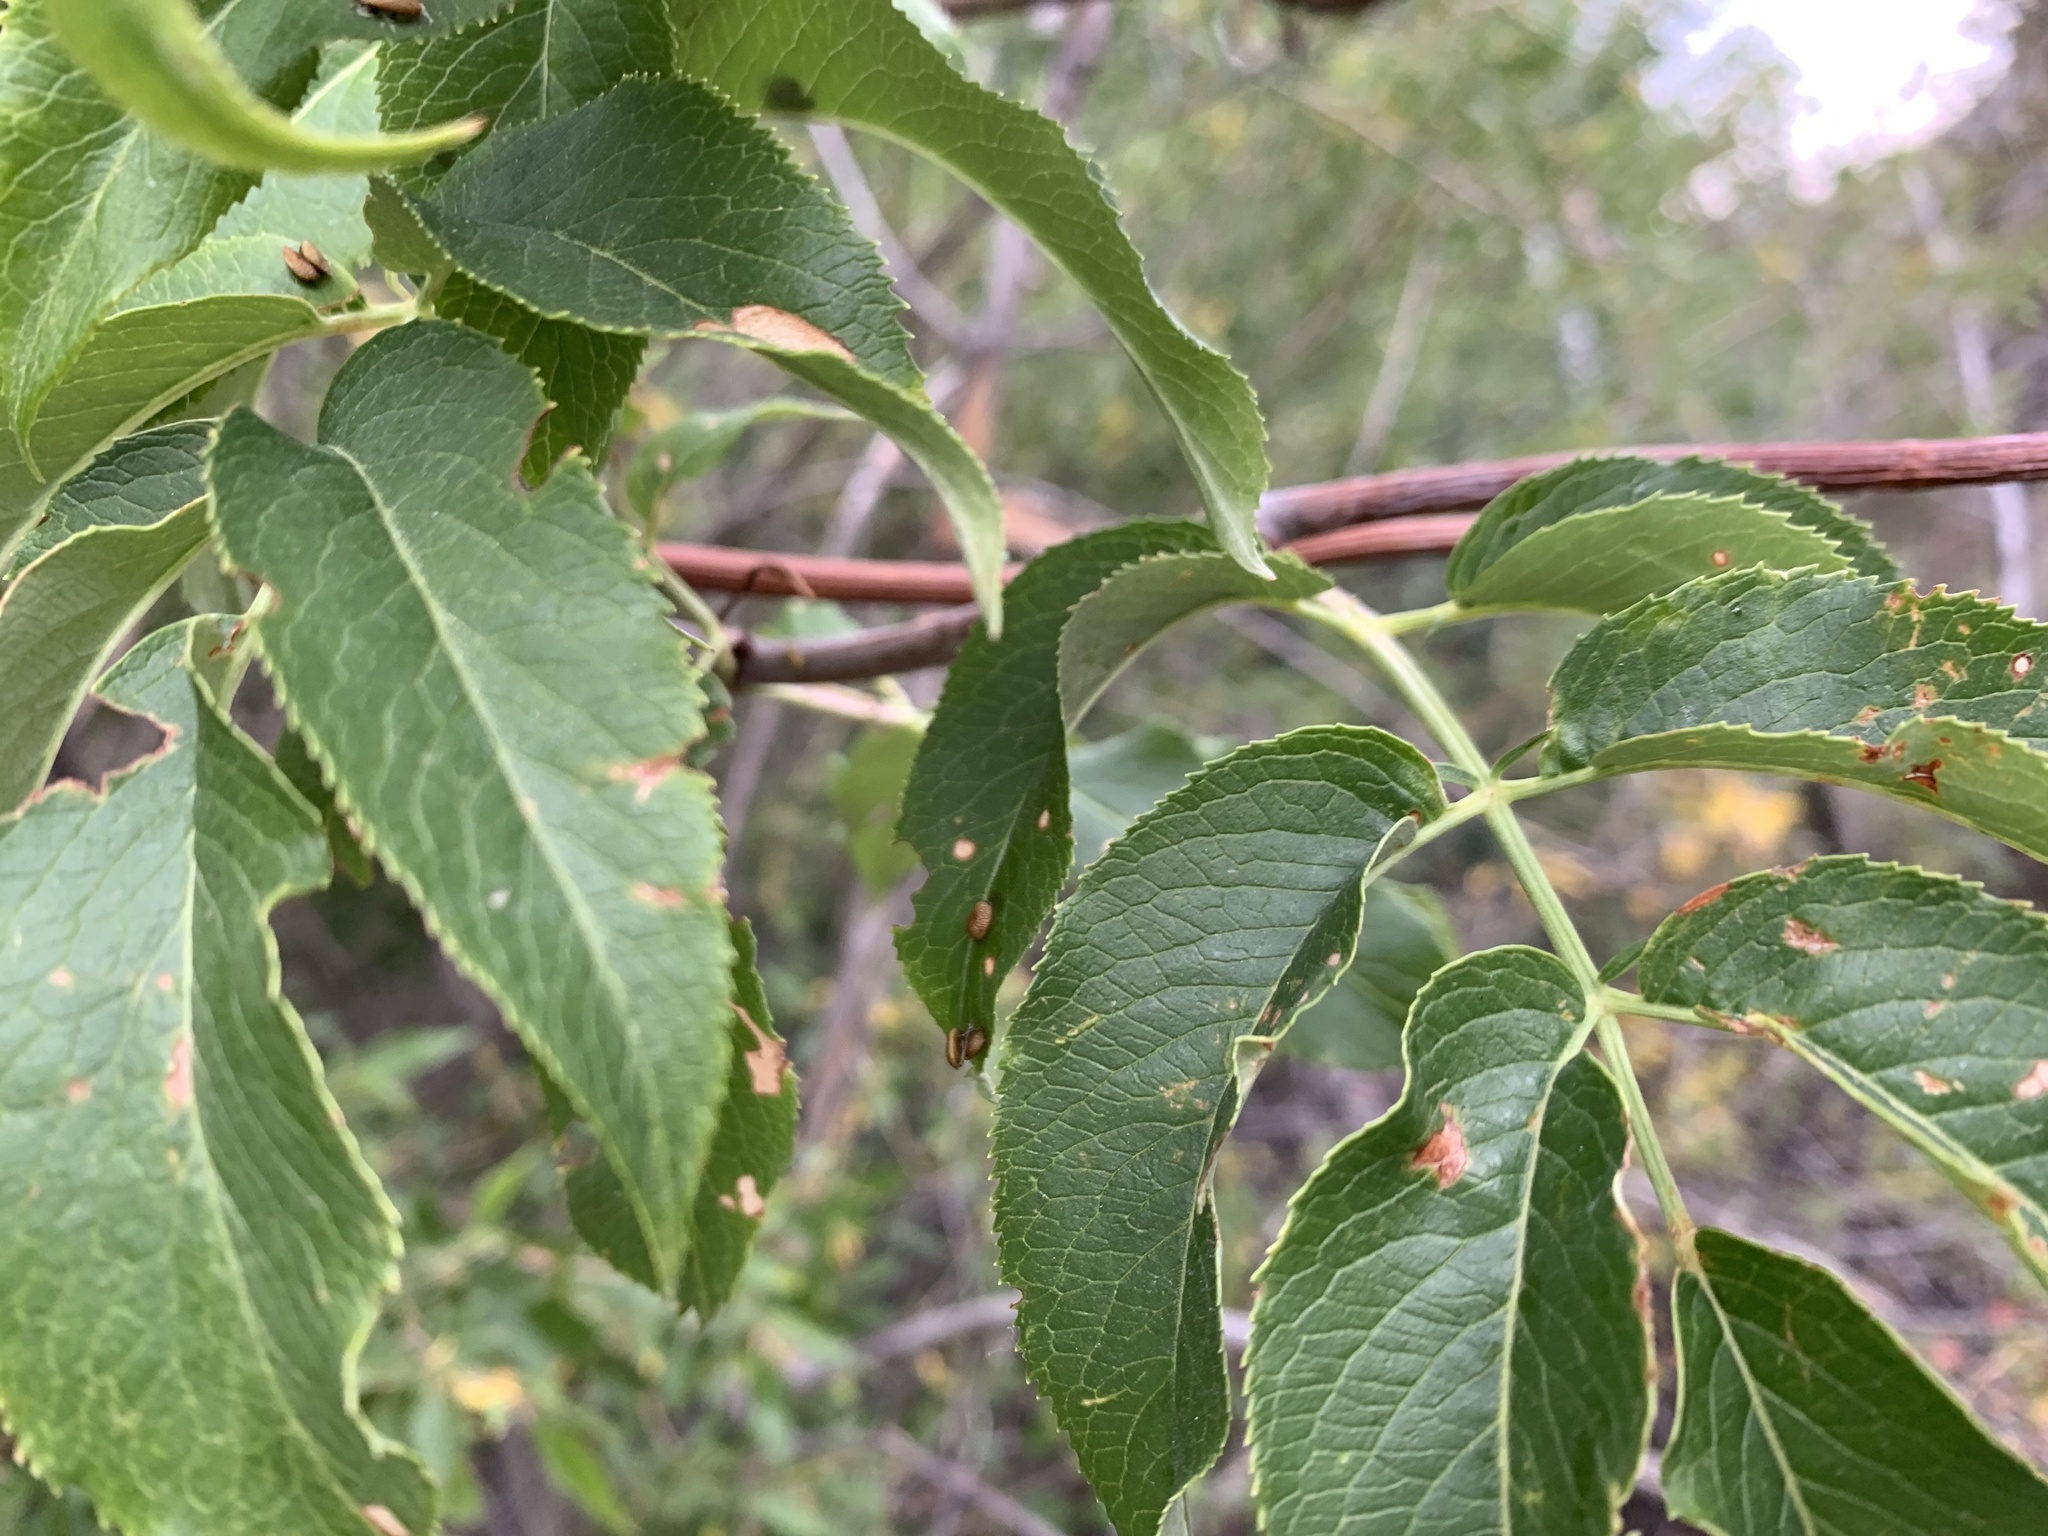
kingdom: Plantae
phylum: Tracheophyta
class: Magnoliopsida
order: Dipsacales
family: Viburnaceae
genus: Sambucus
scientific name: Sambucus cerulea
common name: Blue elder
